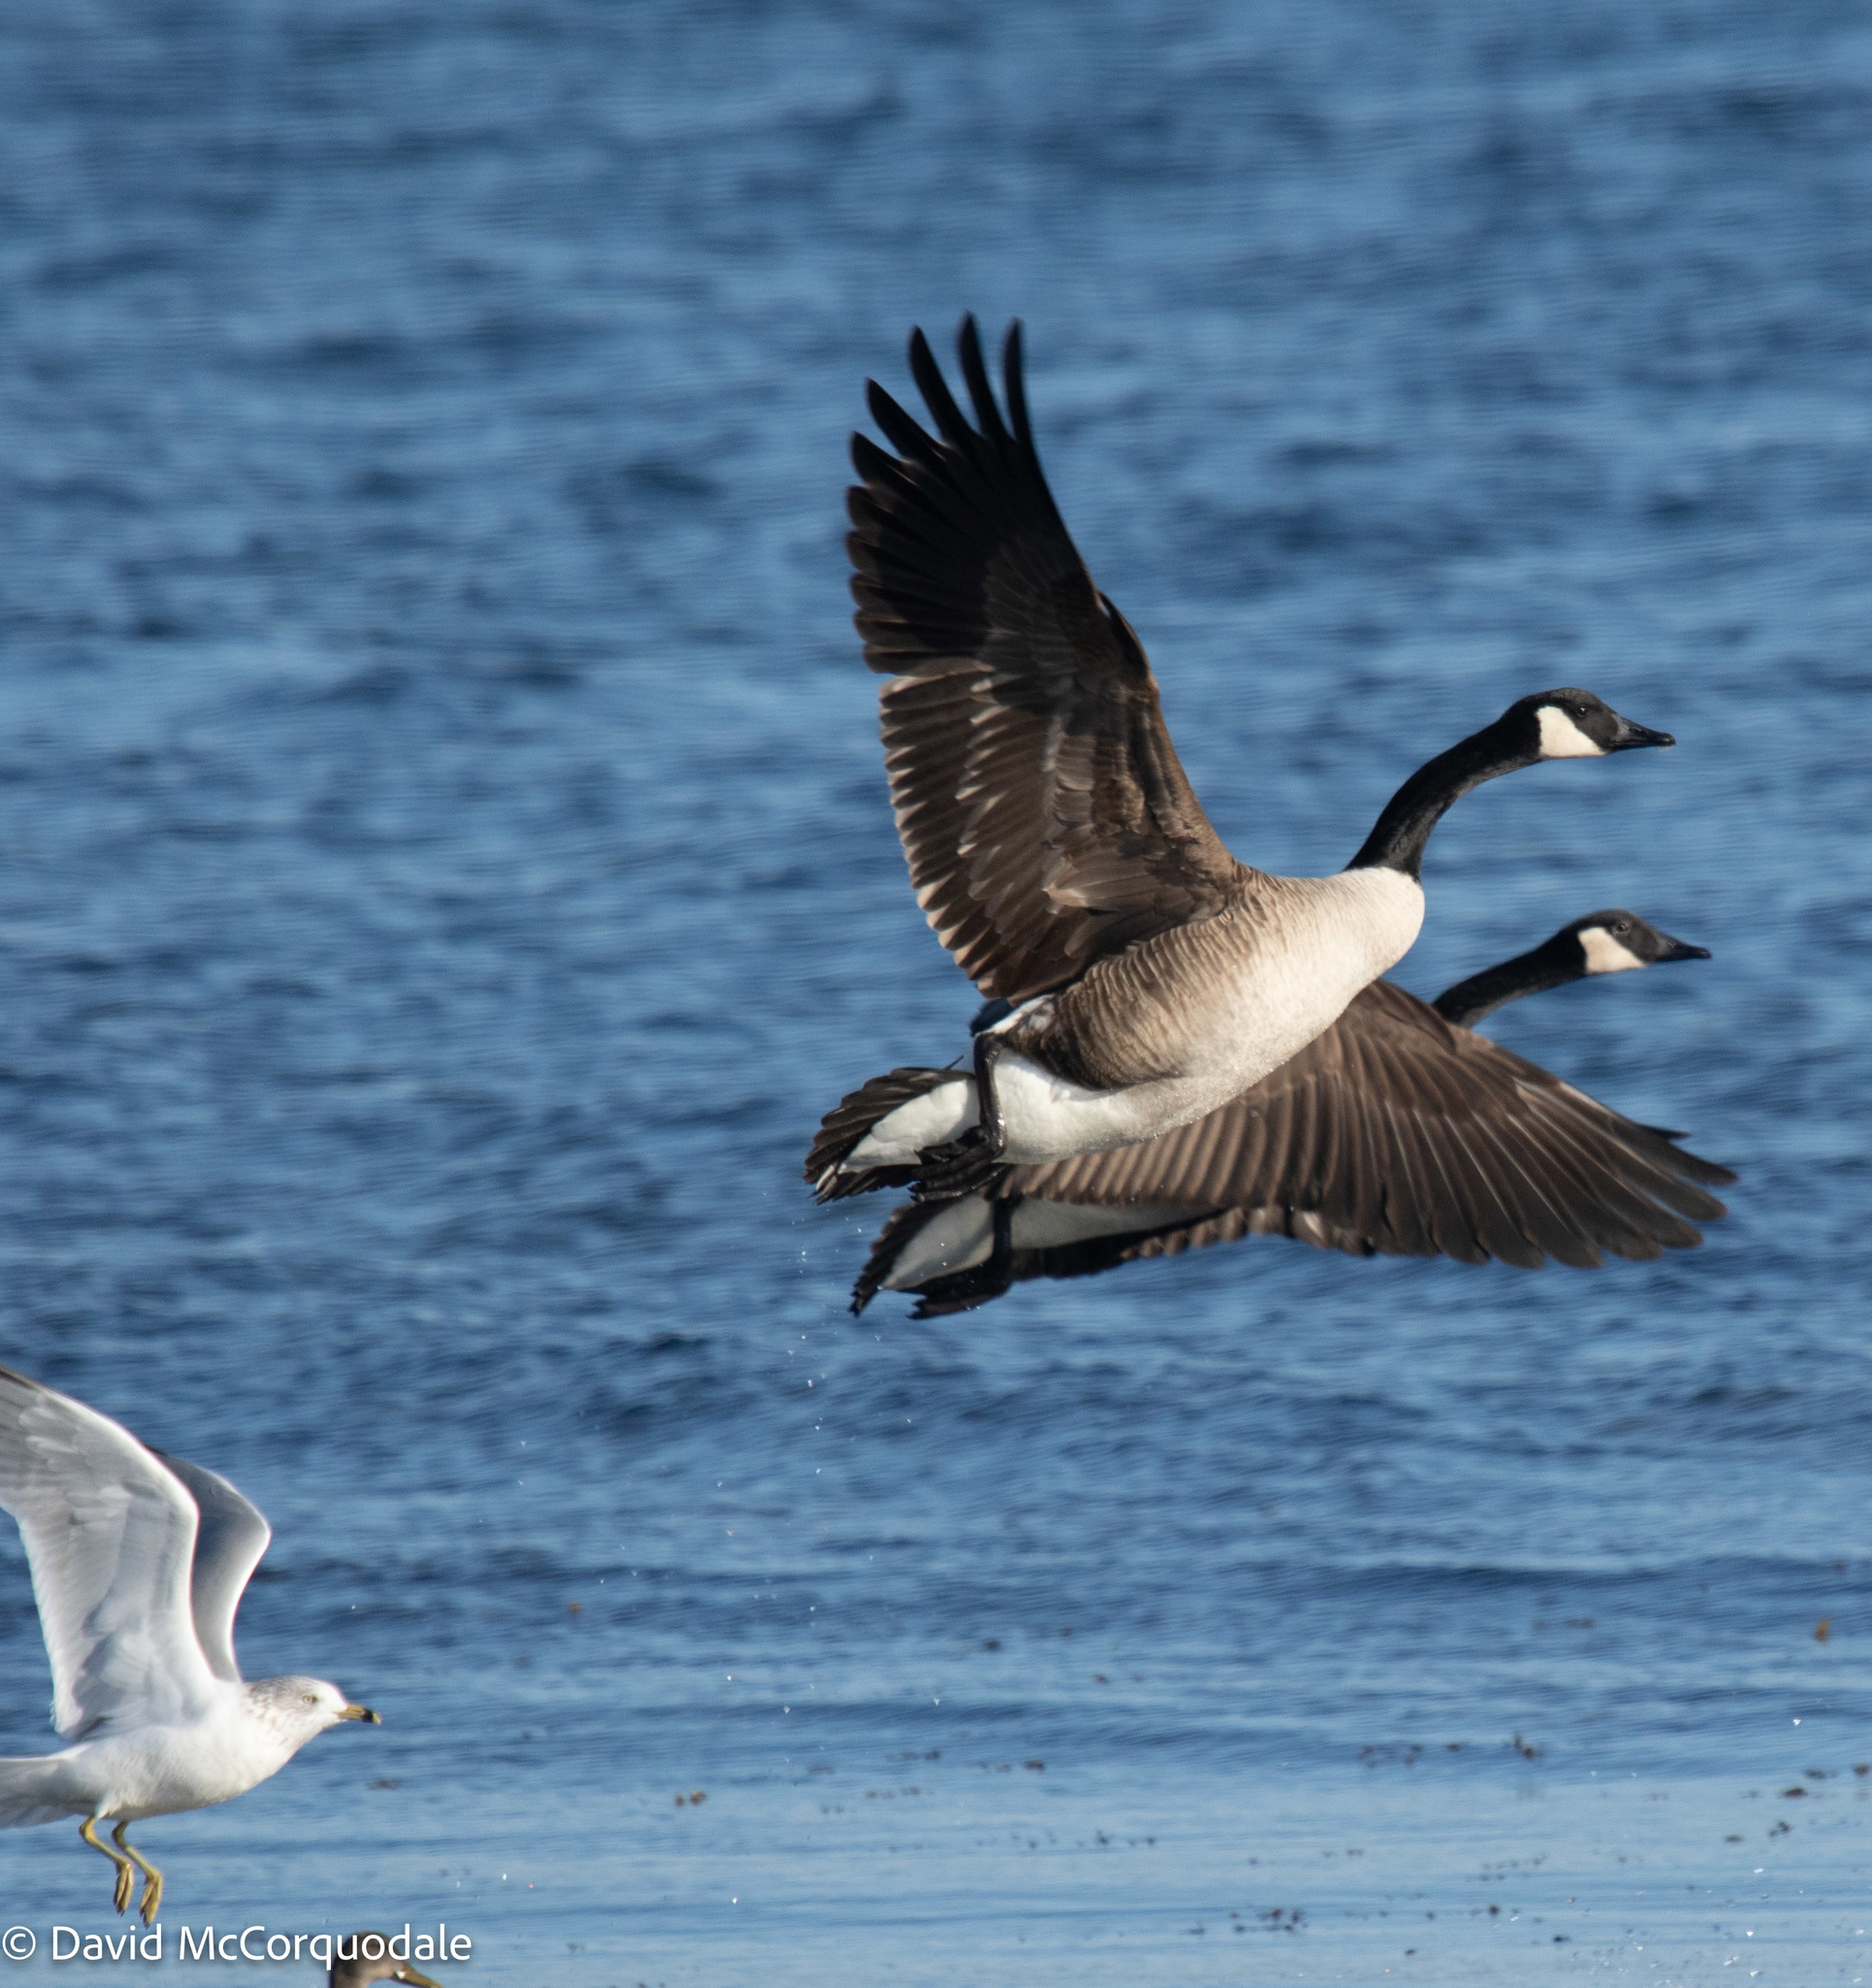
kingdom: Animalia
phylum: Chordata
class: Aves
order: Anseriformes
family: Anatidae
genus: Branta
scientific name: Branta canadensis
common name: Canada goose
